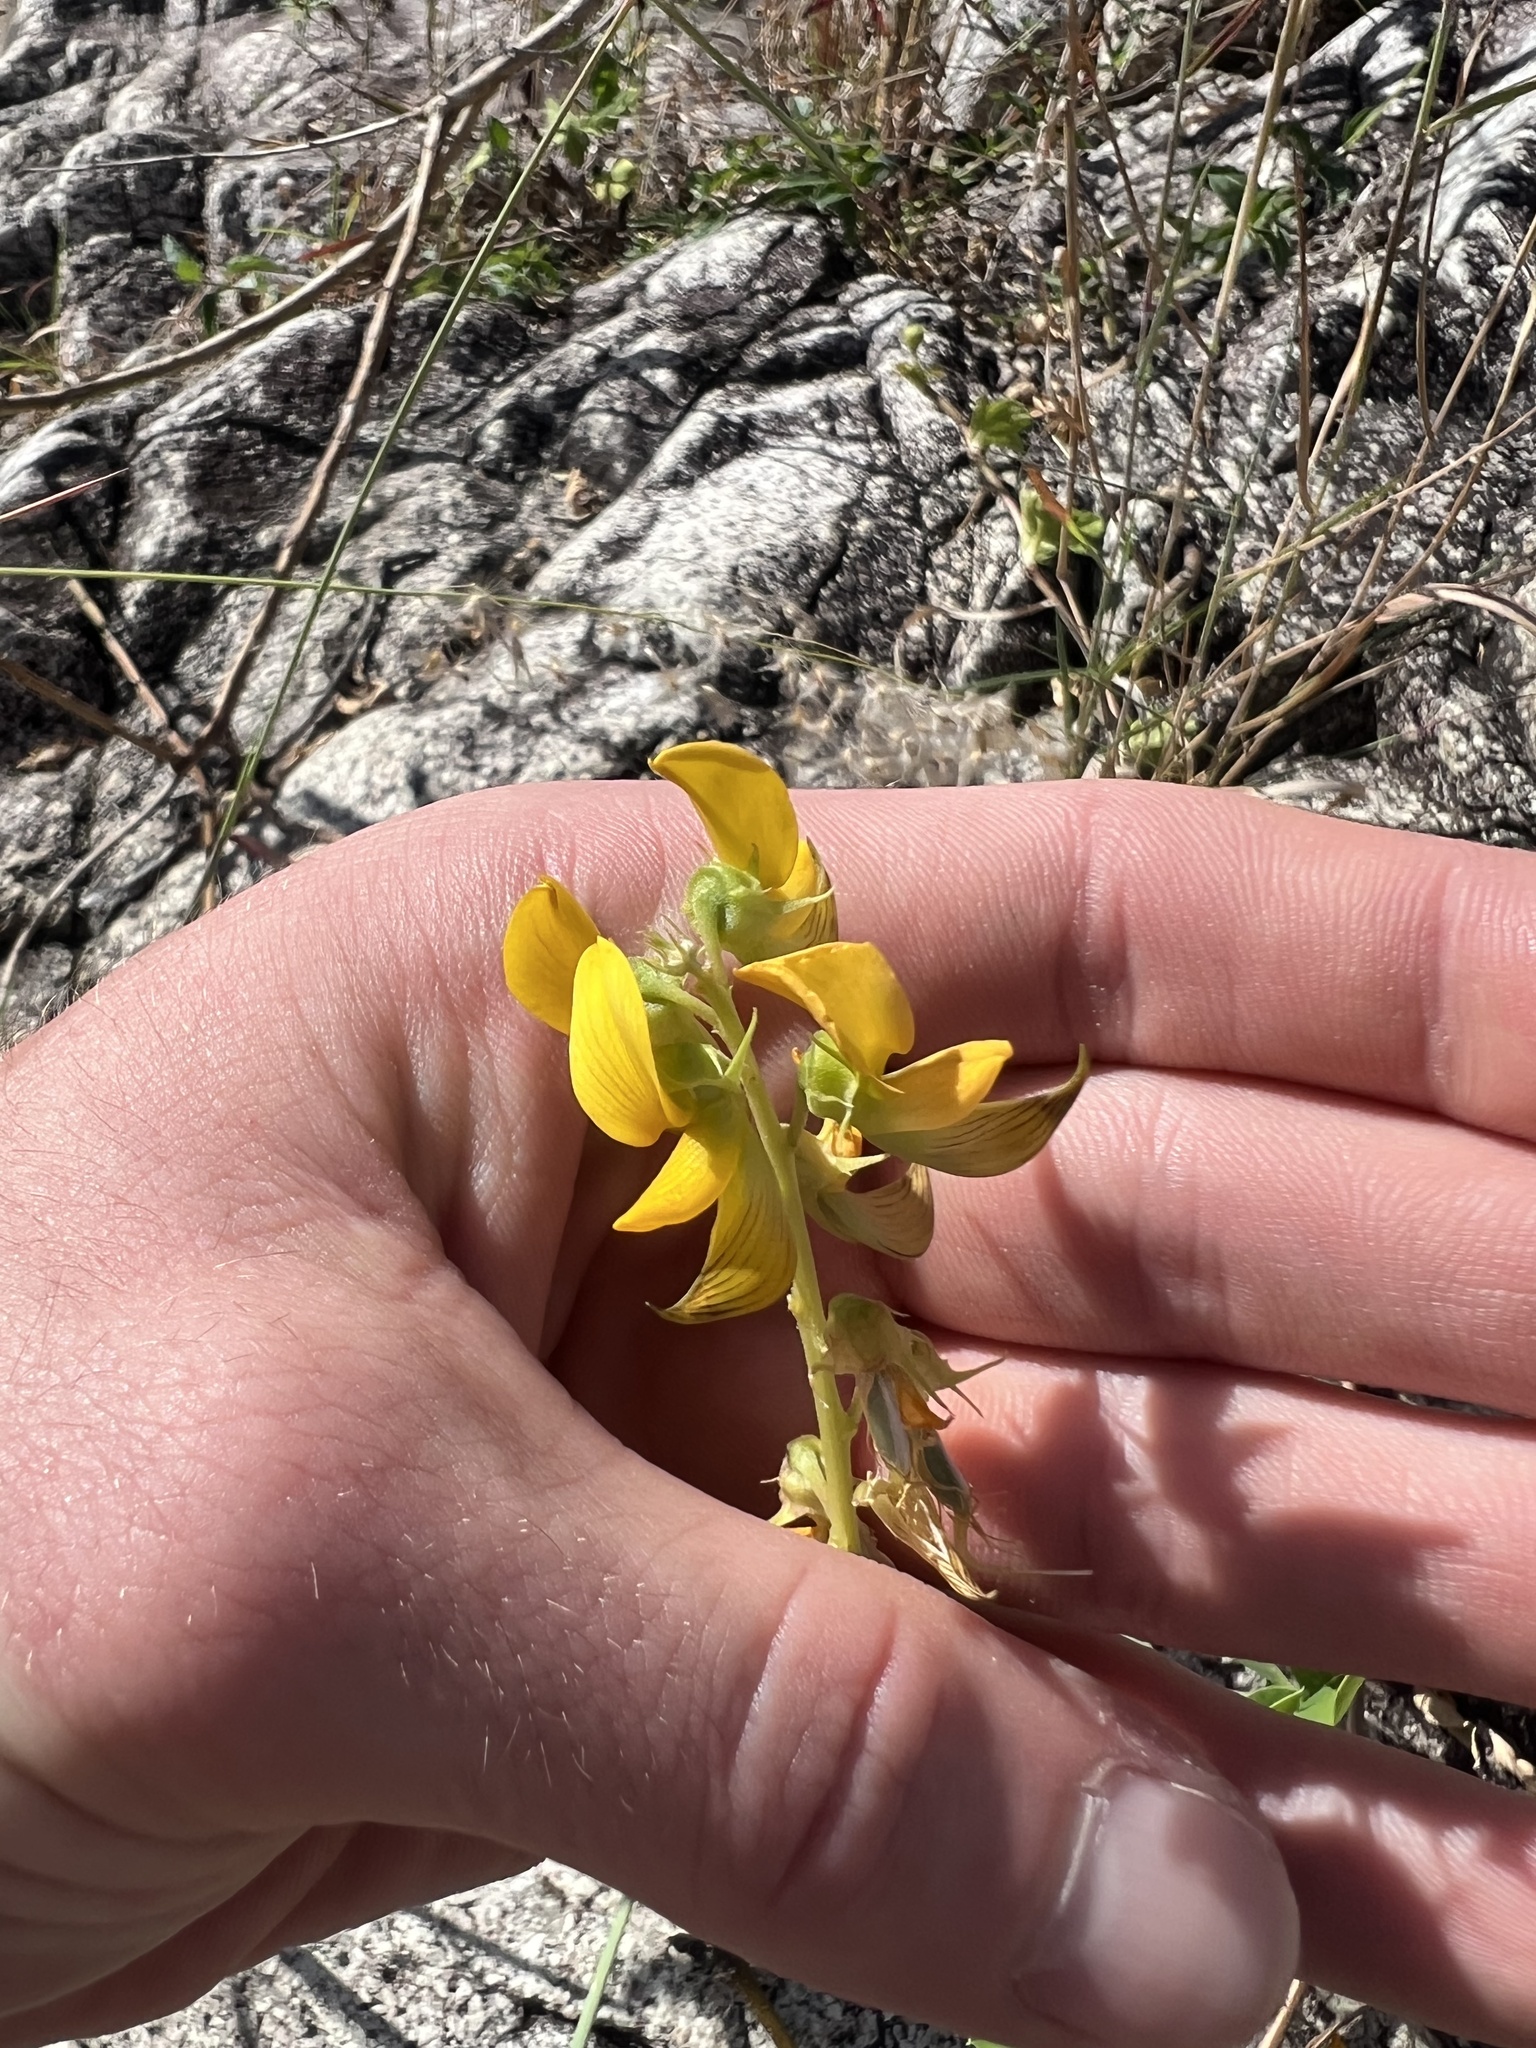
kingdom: Plantae
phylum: Tracheophyta
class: Magnoliopsida
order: Fabales
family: Fabaceae
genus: Crotalaria
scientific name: Crotalaria pallida
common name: Smooth rattlebox
